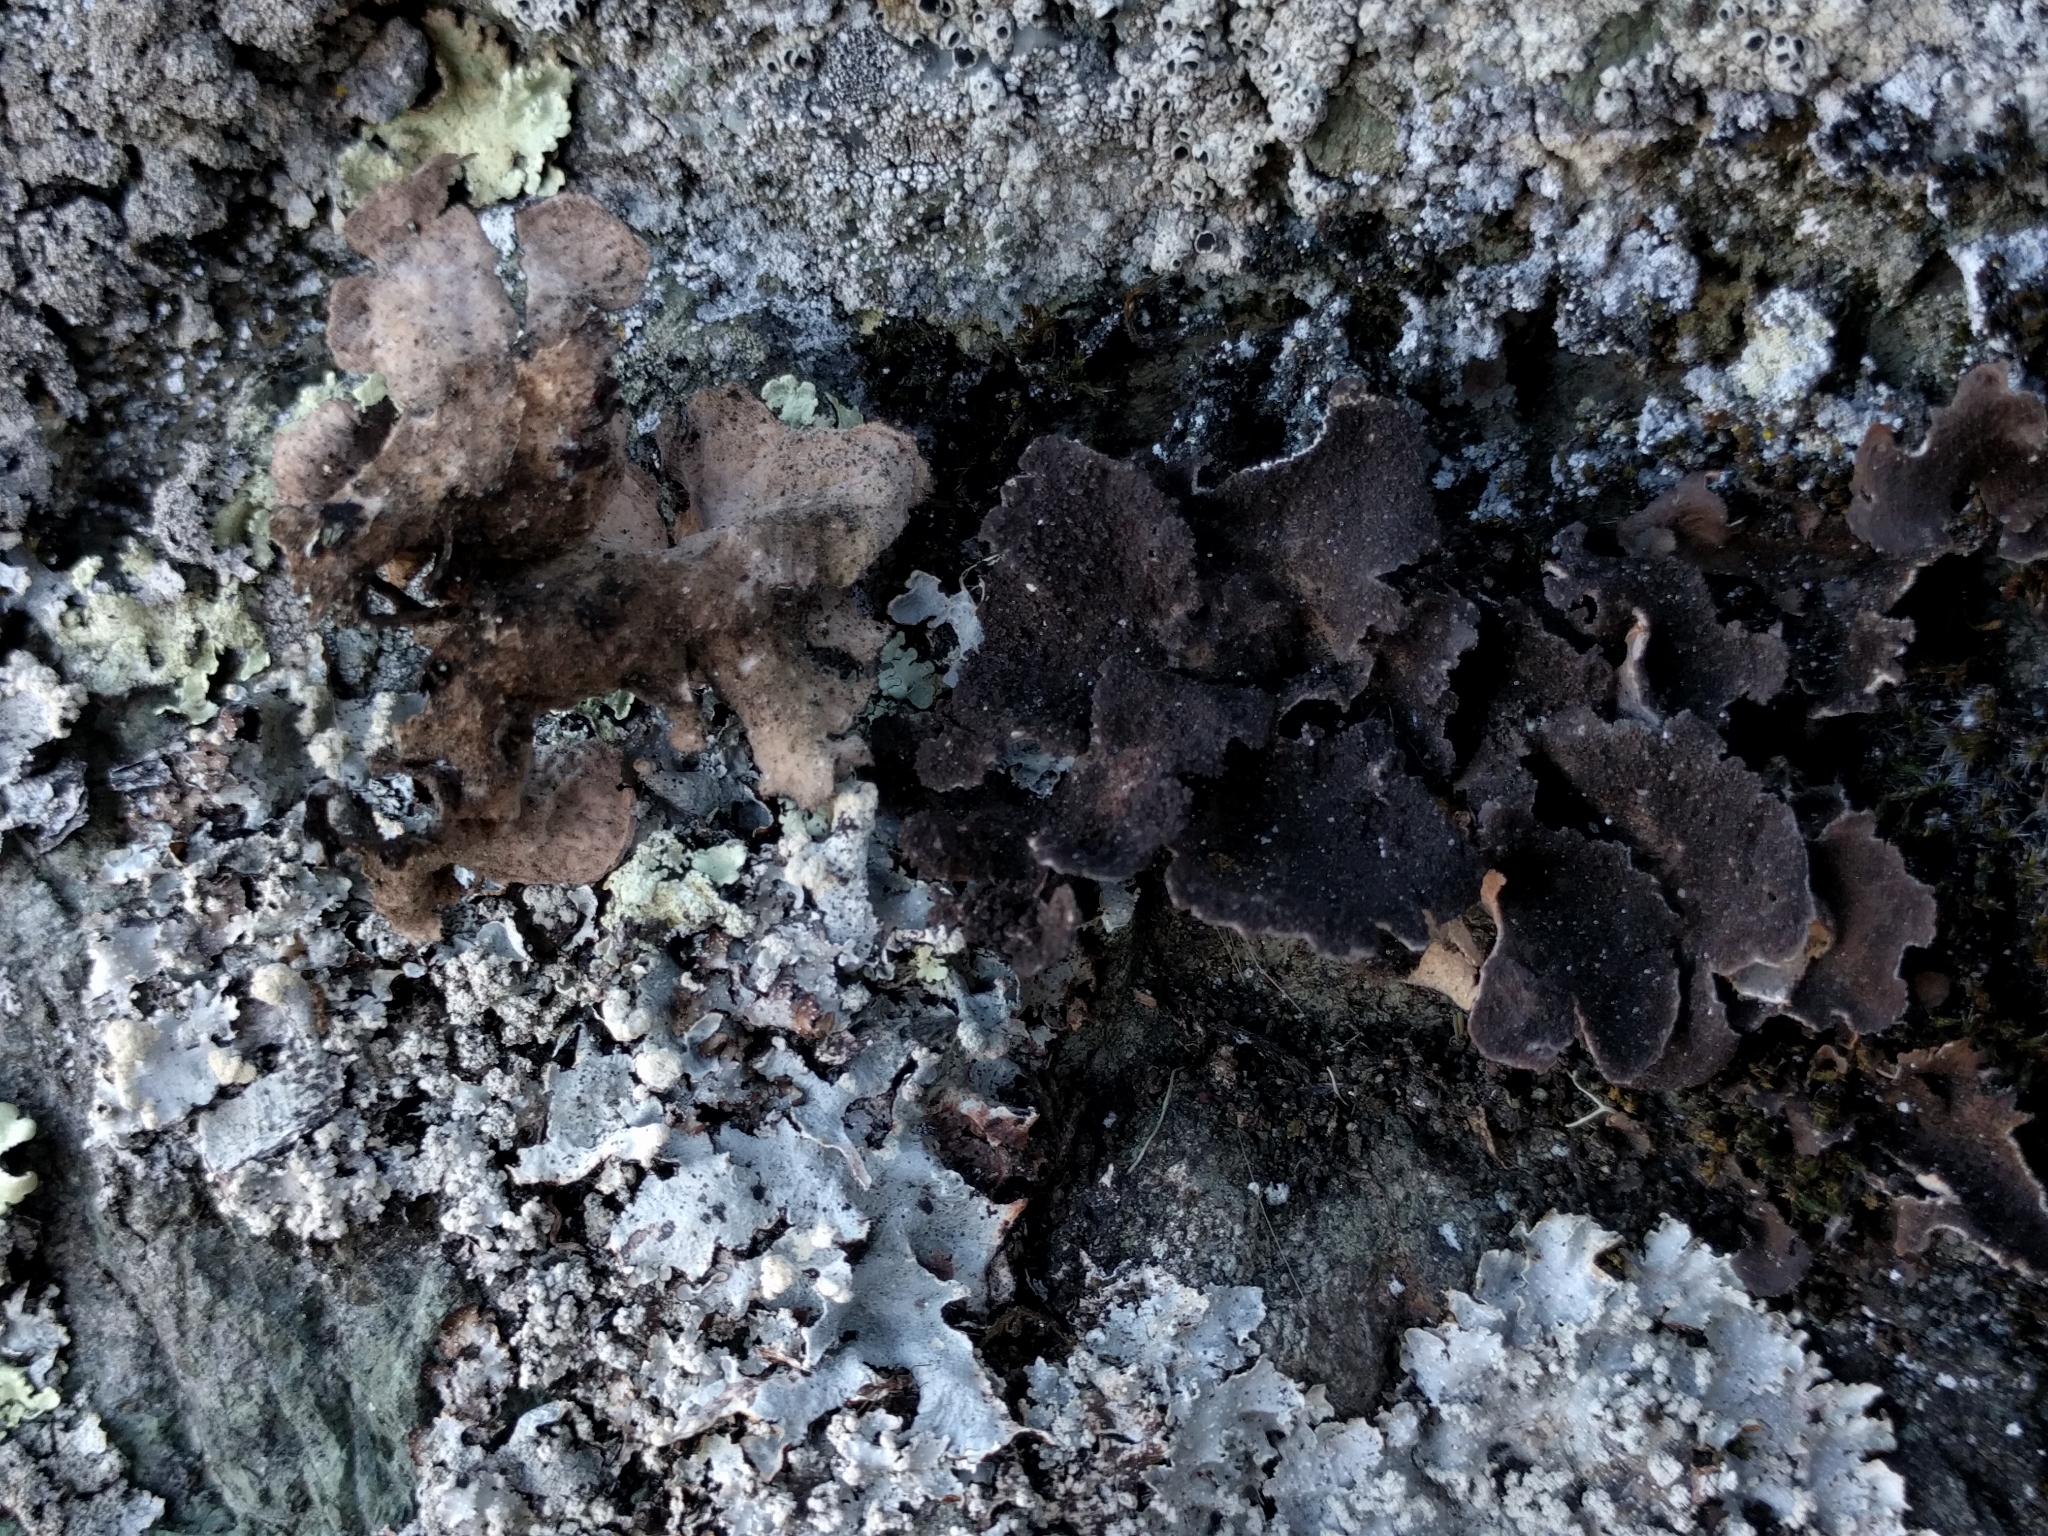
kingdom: Fungi
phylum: Ascomycota
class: Lecanoromycetes
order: Peltigerales
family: Lobariaceae
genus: Sticta
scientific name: Sticta fuliginosa
